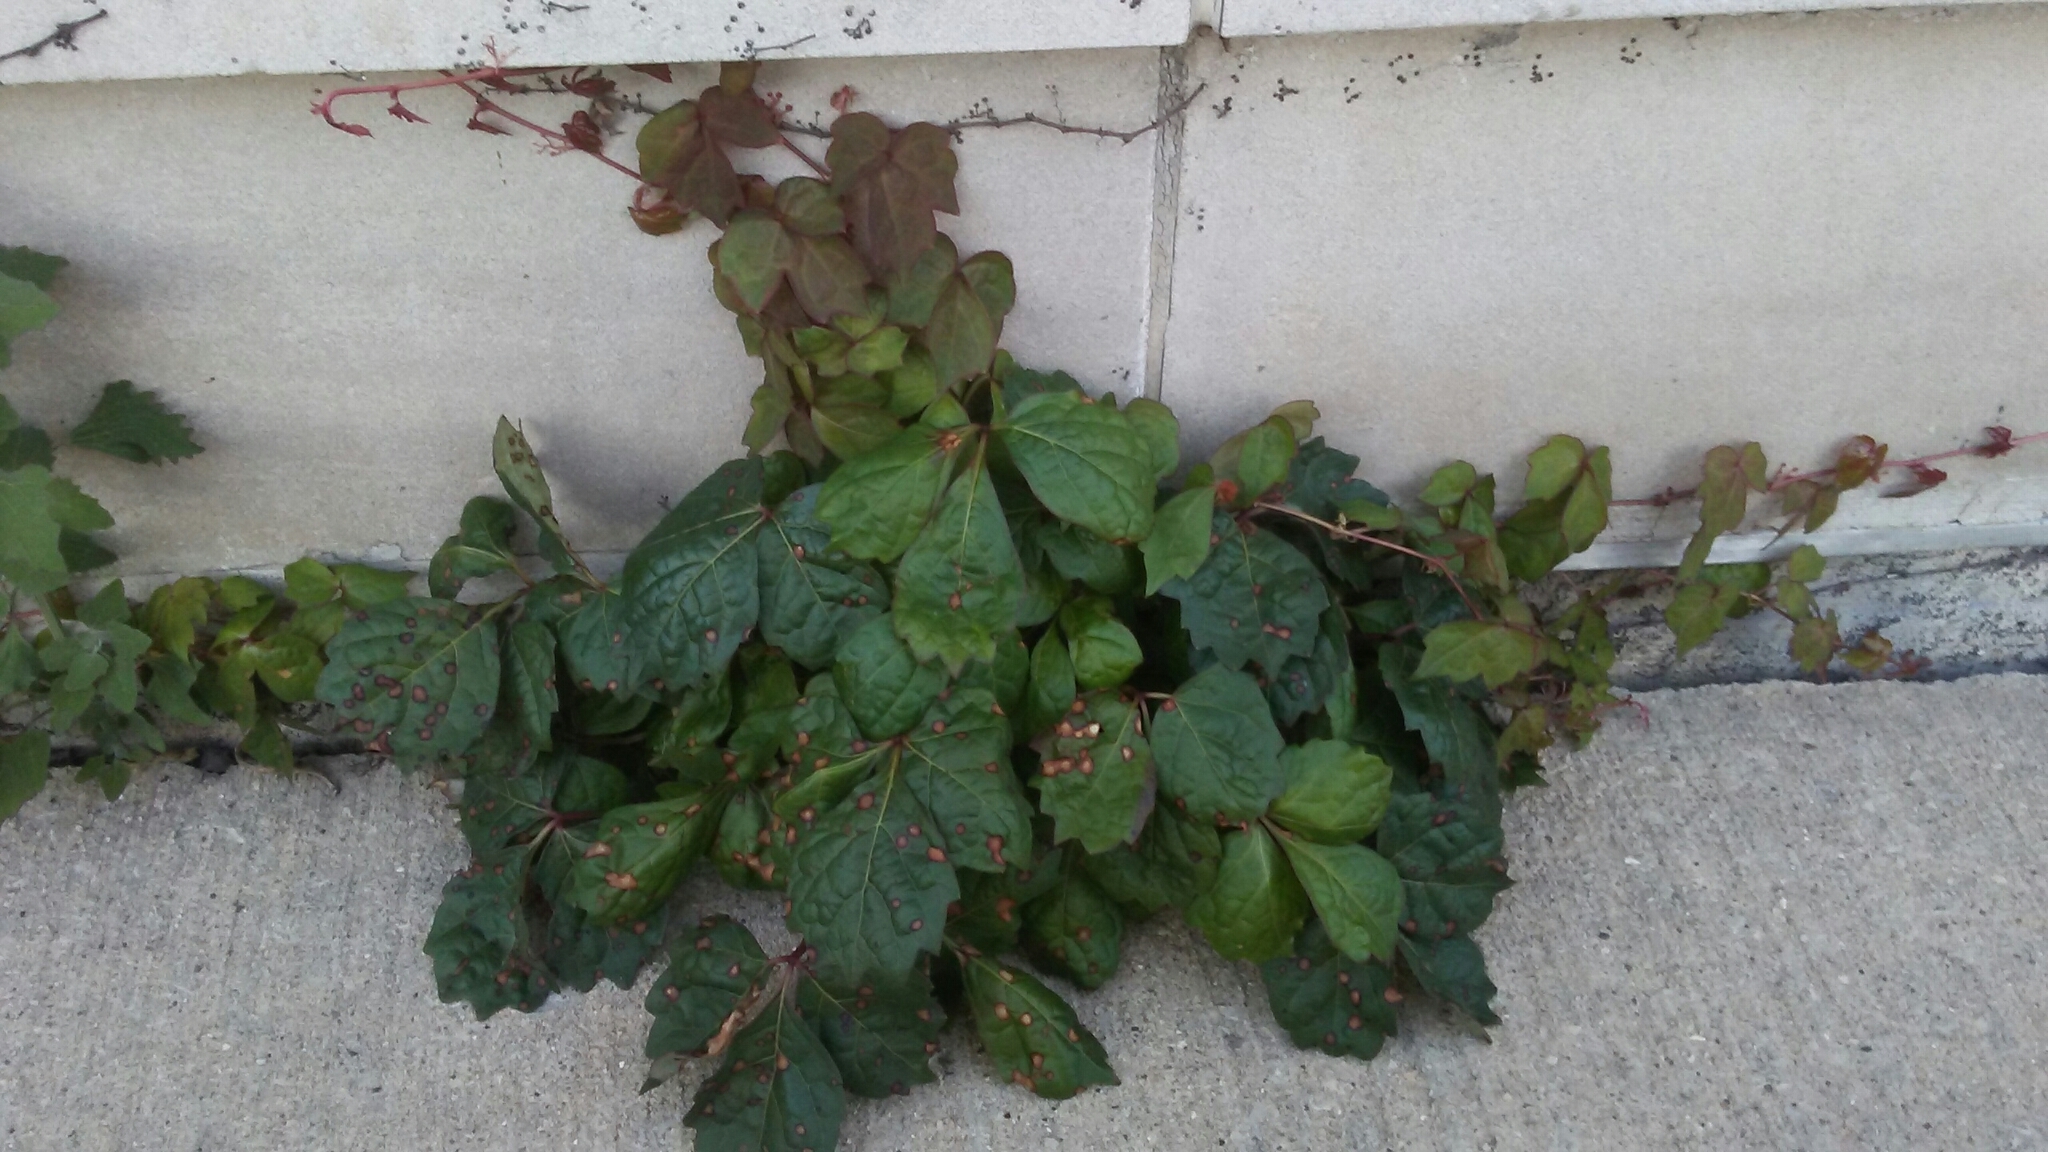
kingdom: Plantae
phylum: Tracheophyta
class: Magnoliopsida
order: Vitales
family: Vitaceae
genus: Parthenocissus
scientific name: Parthenocissus tricuspidata
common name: Boston ivy
